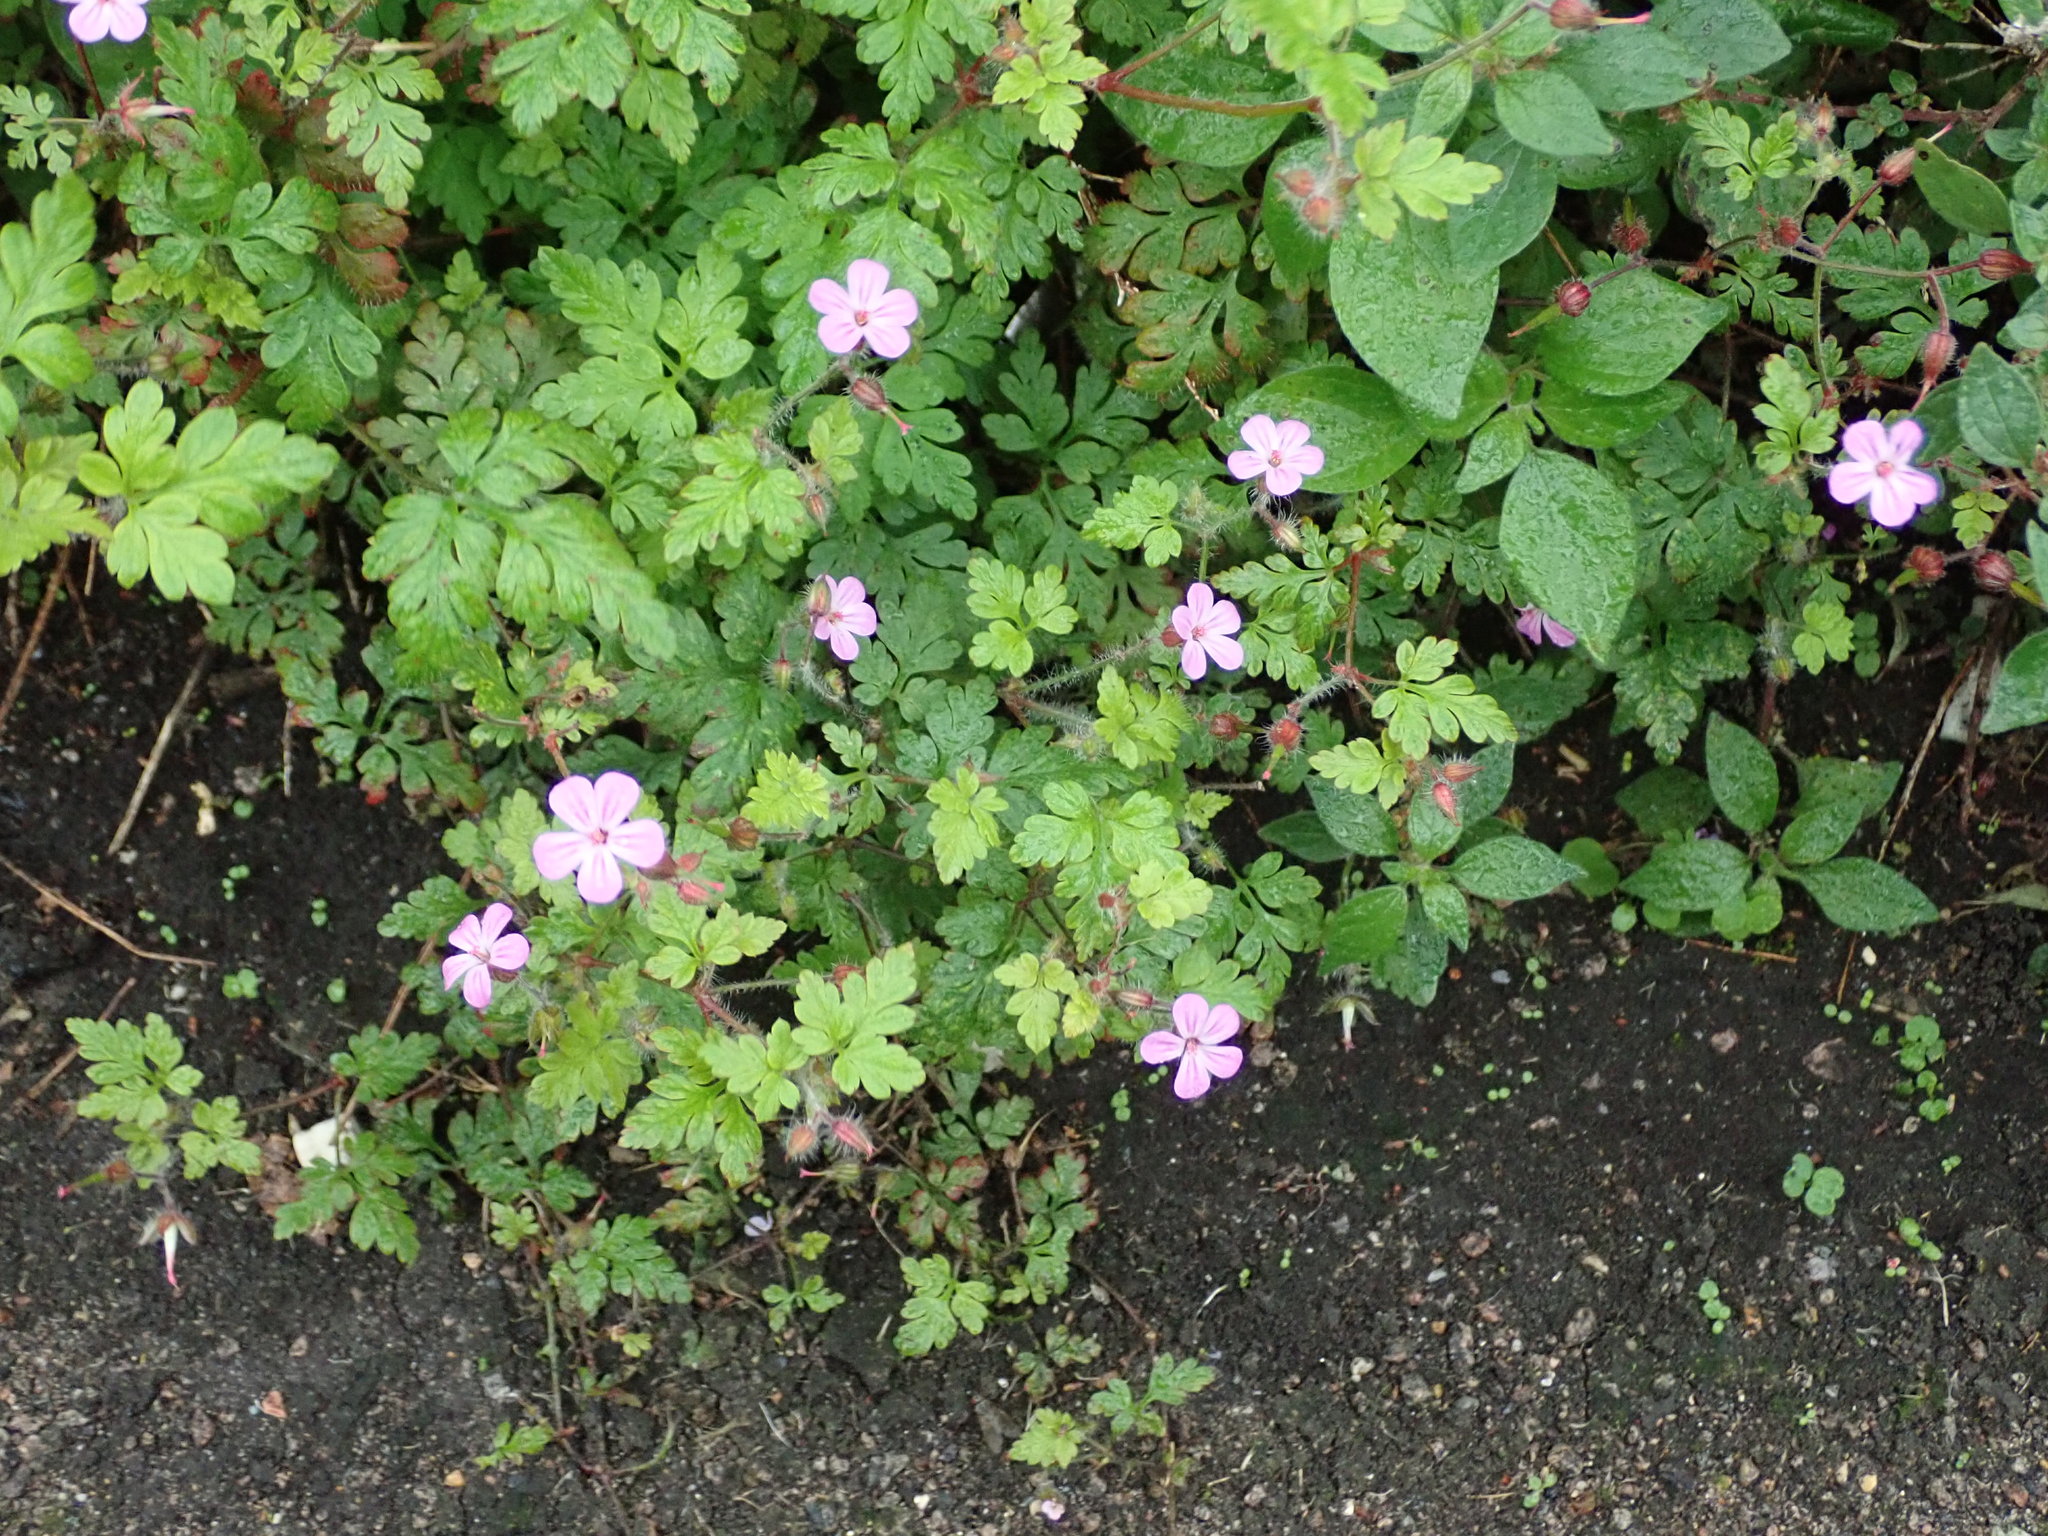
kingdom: Plantae
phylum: Tracheophyta
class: Magnoliopsida
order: Geraniales
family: Geraniaceae
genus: Geranium
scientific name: Geranium robertianum
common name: Herb-robert
